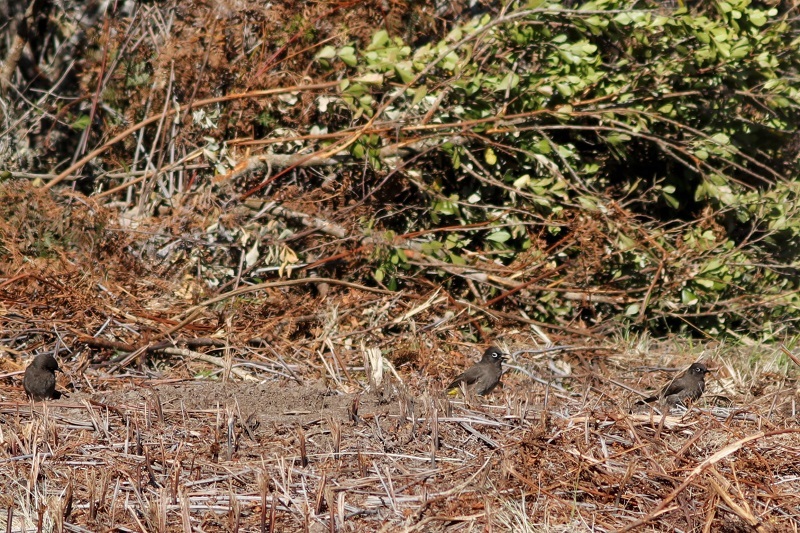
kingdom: Animalia
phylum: Chordata
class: Aves
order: Passeriformes
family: Pycnonotidae
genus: Pycnonotus
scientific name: Pycnonotus capensis
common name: Cape bulbul
